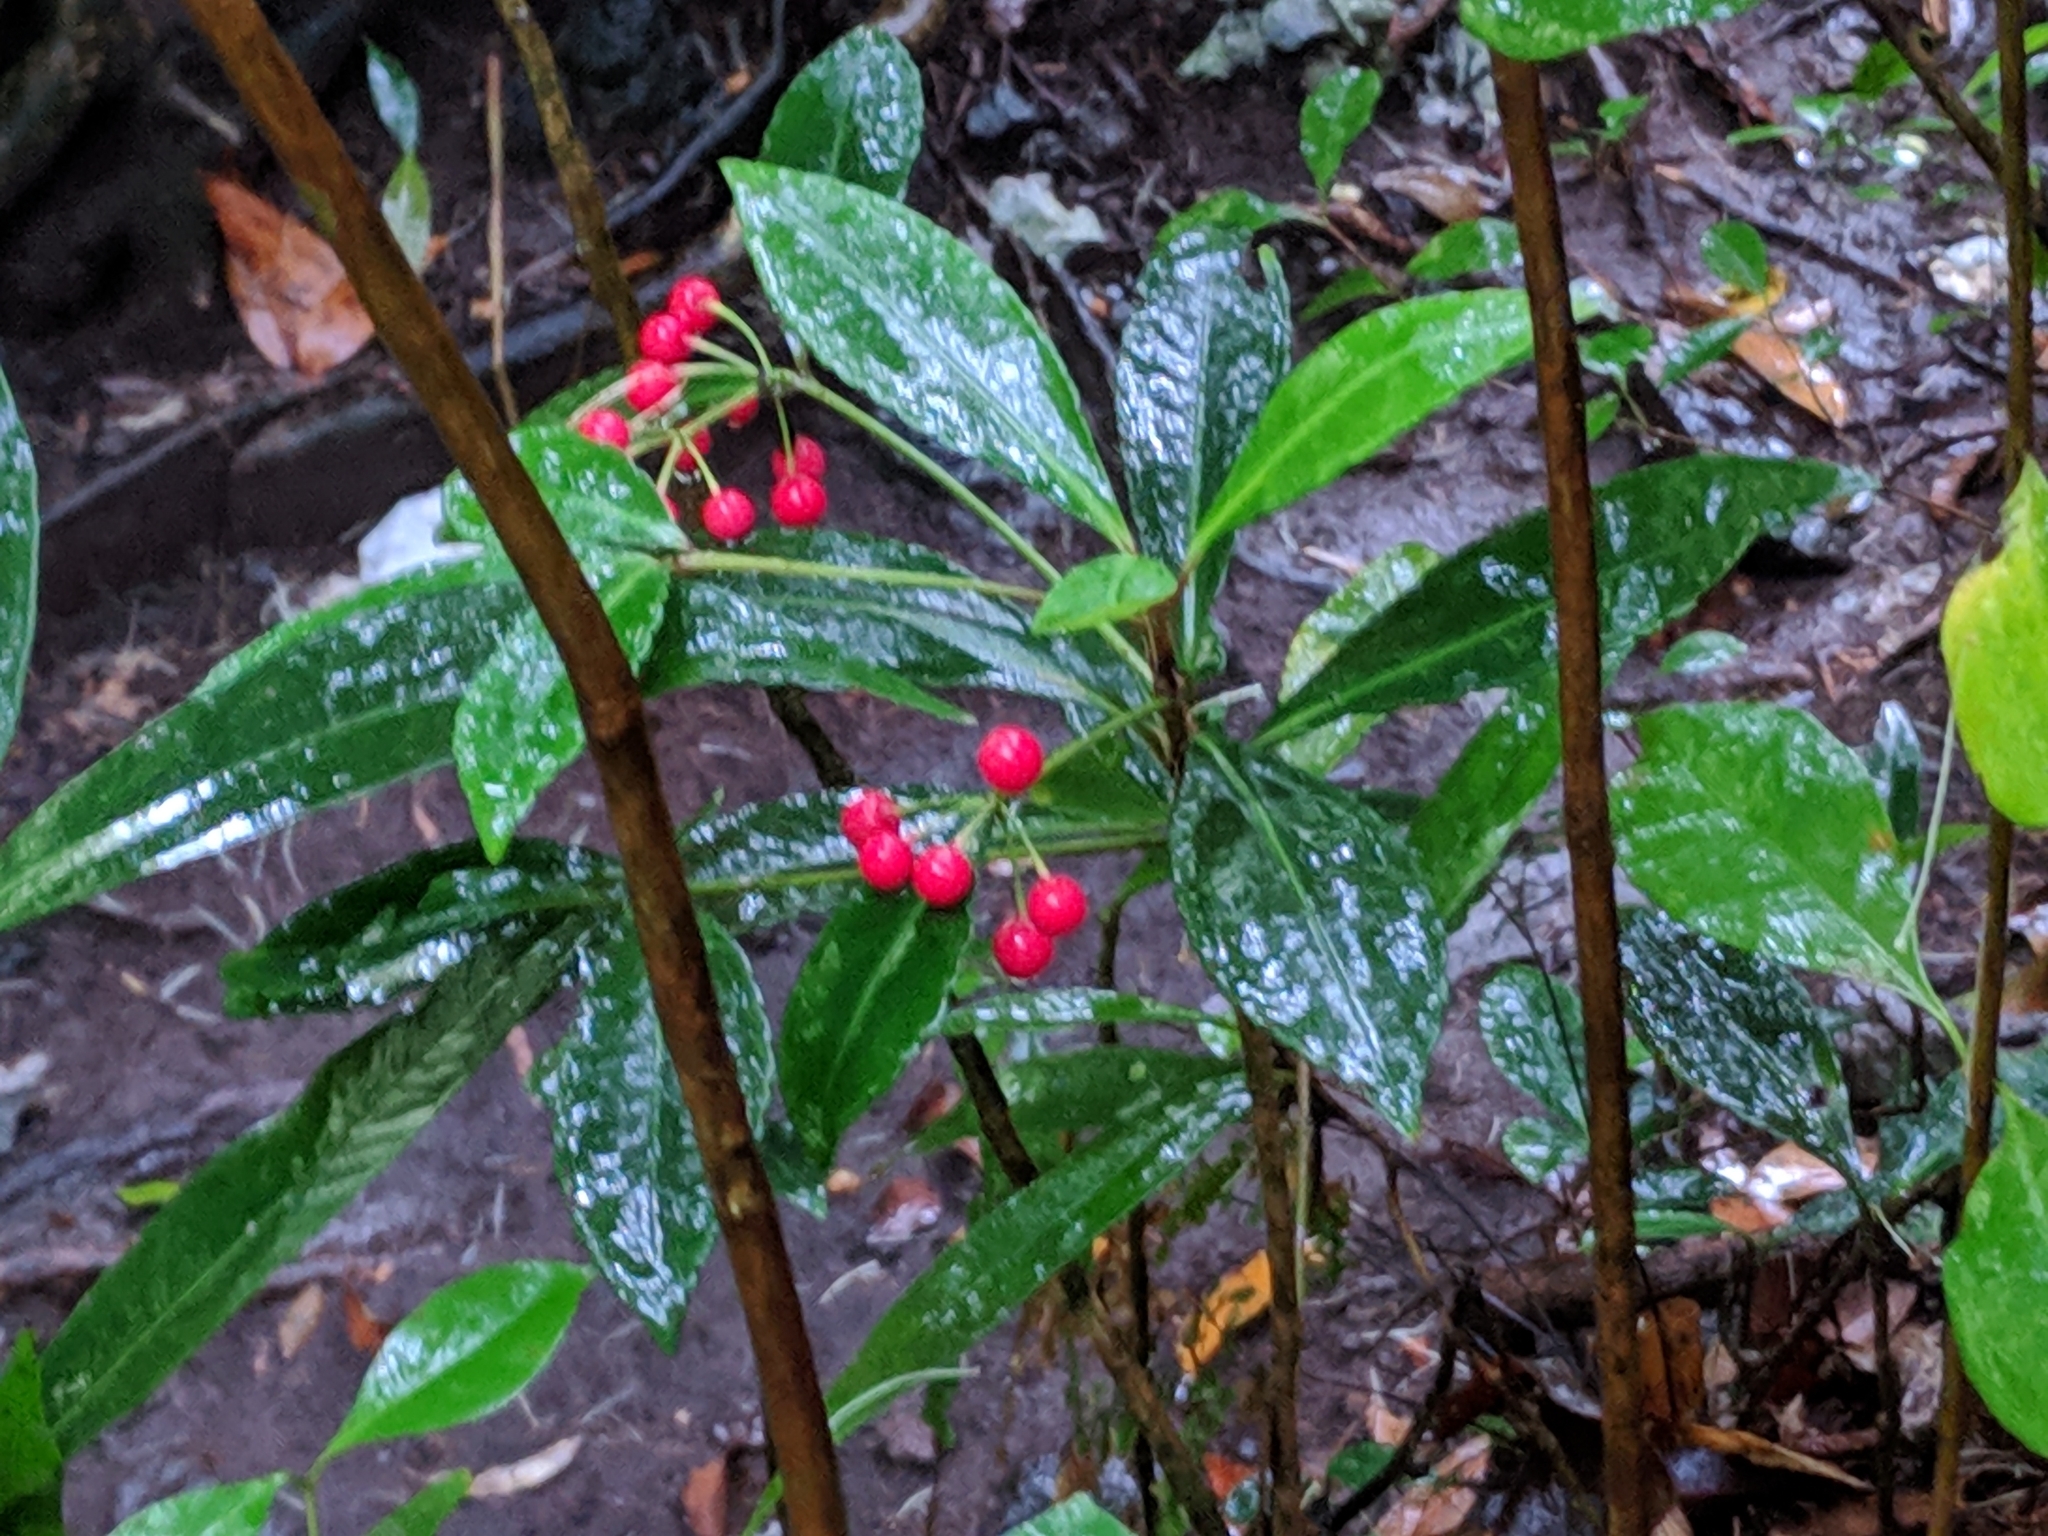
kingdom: Plantae
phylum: Tracheophyta
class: Magnoliopsida
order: Ericales
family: Primulaceae
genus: Ardisia
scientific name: Ardisia crenata
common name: Hen's eyes
